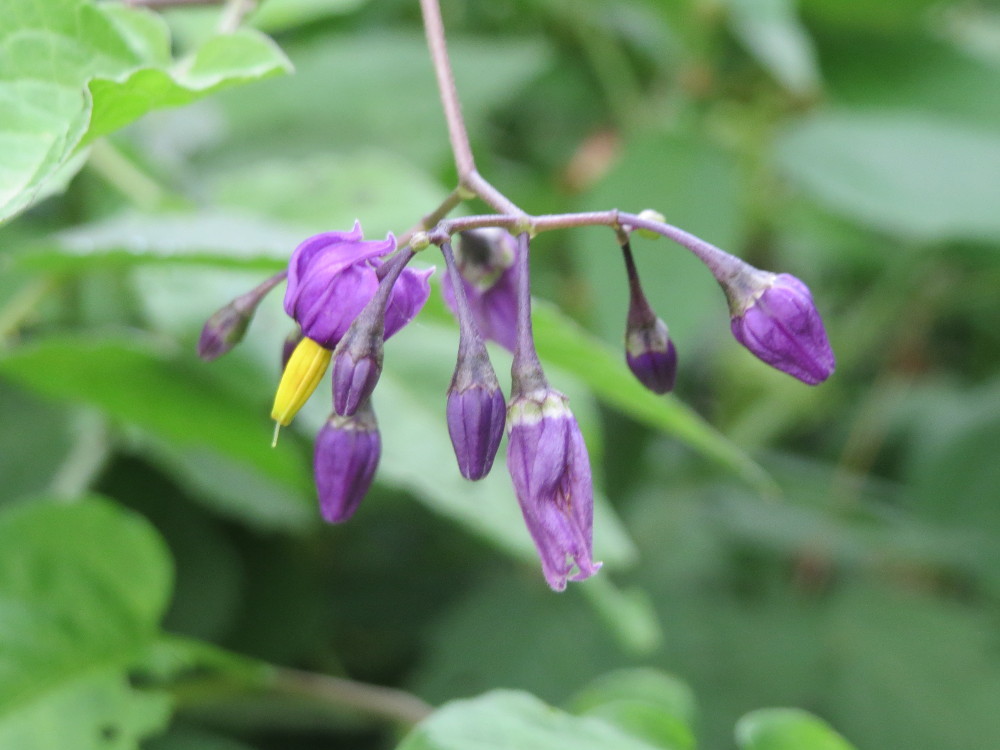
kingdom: Plantae
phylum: Tracheophyta
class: Magnoliopsida
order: Solanales
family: Solanaceae
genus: Solanum
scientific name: Solanum dulcamara
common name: Climbing nightshade
